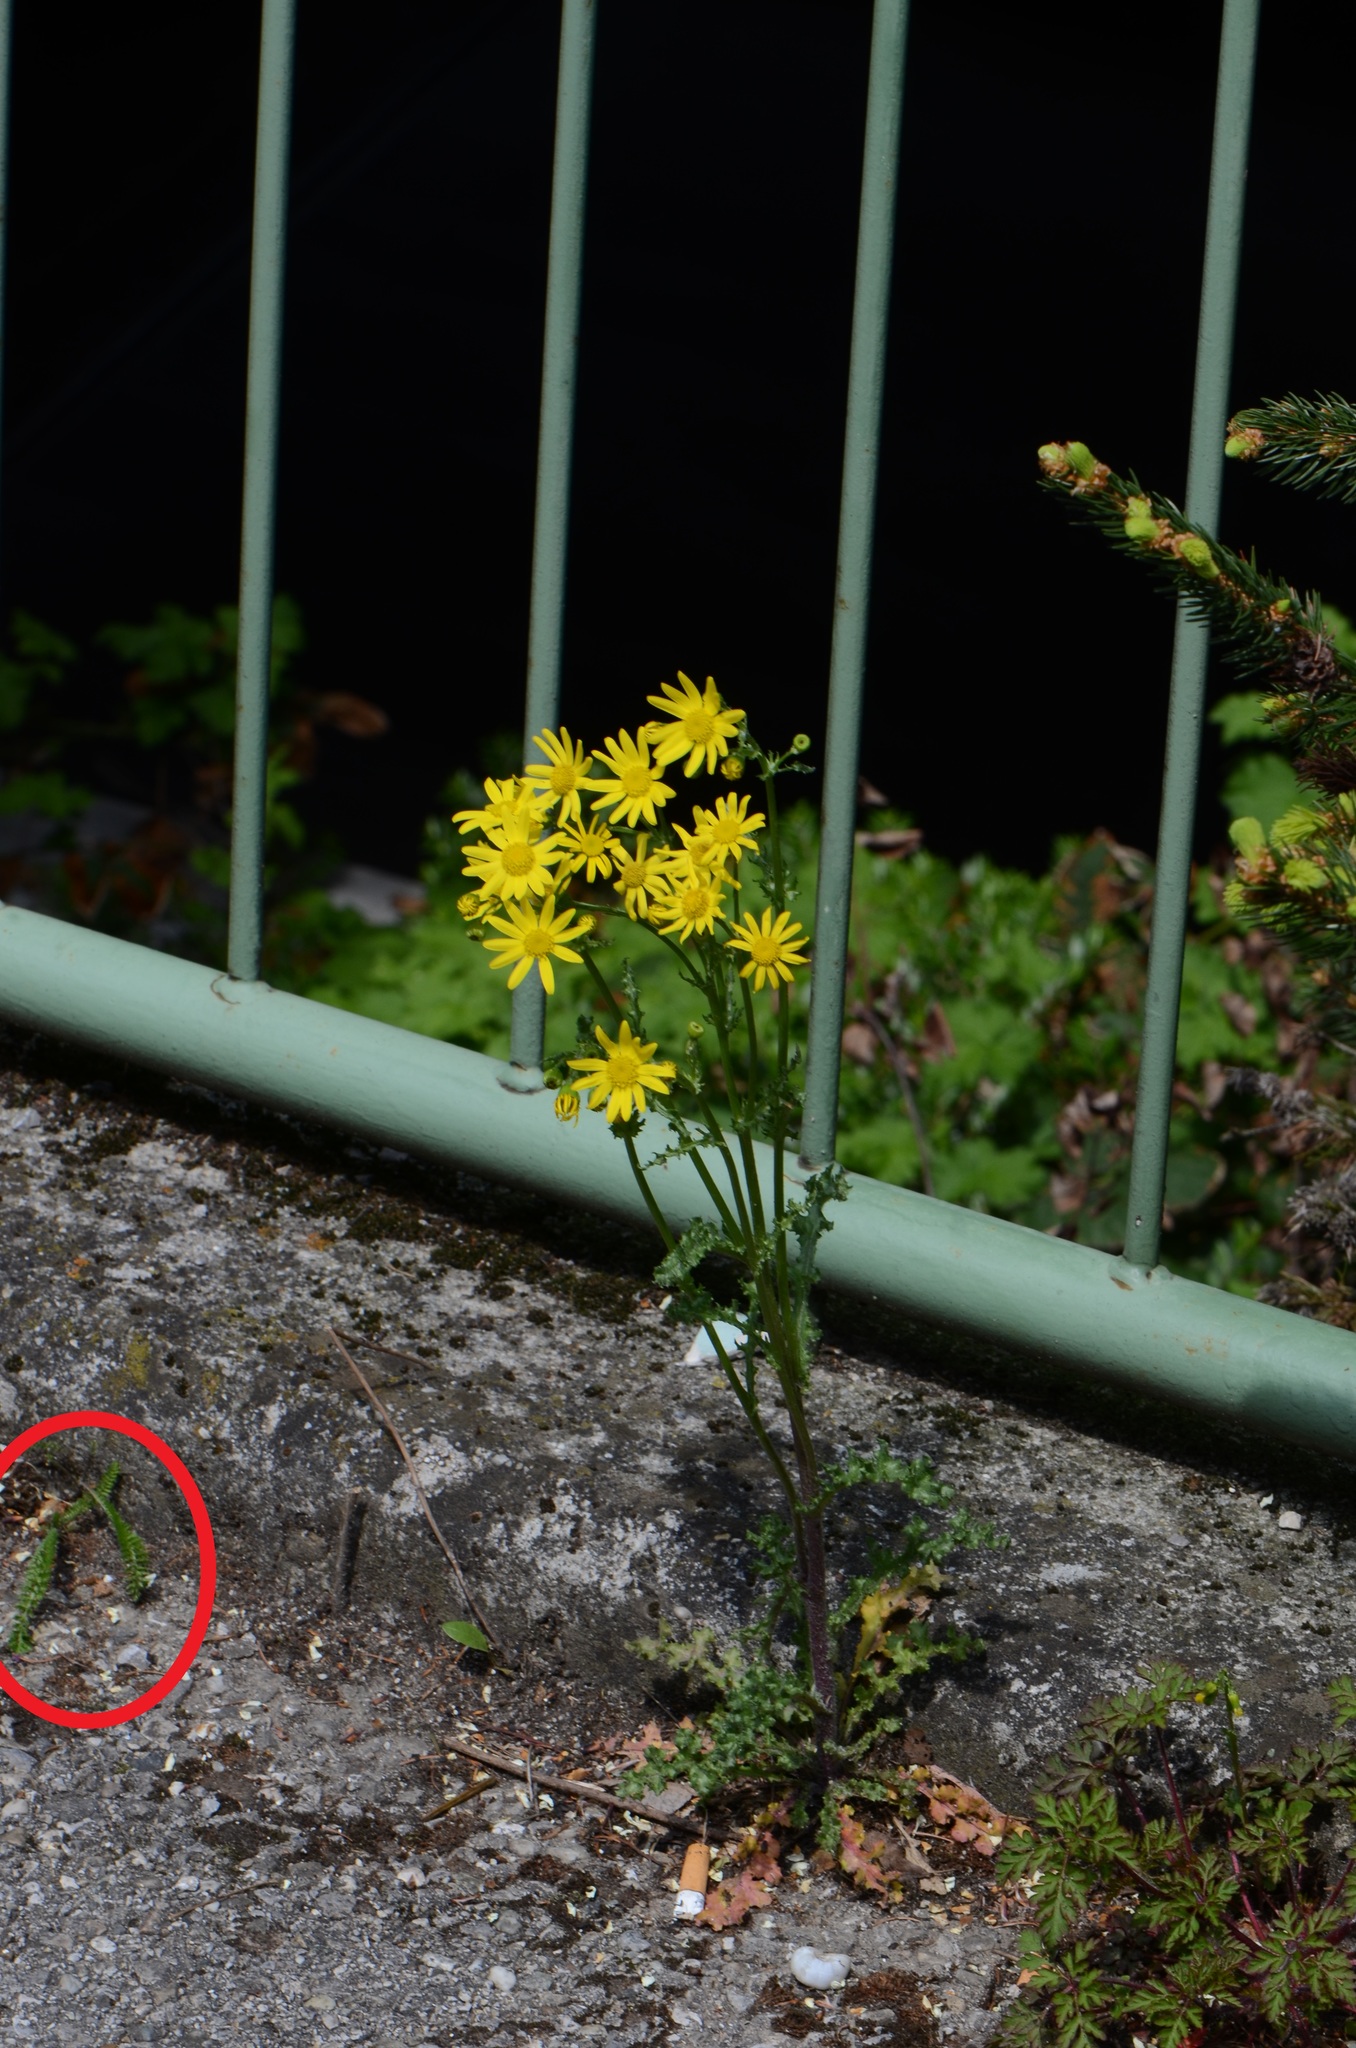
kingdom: Plantae
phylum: Tracheophyta
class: Magnoliopsida
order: Asterales
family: Asteraceae
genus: Achillea
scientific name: Achillea
